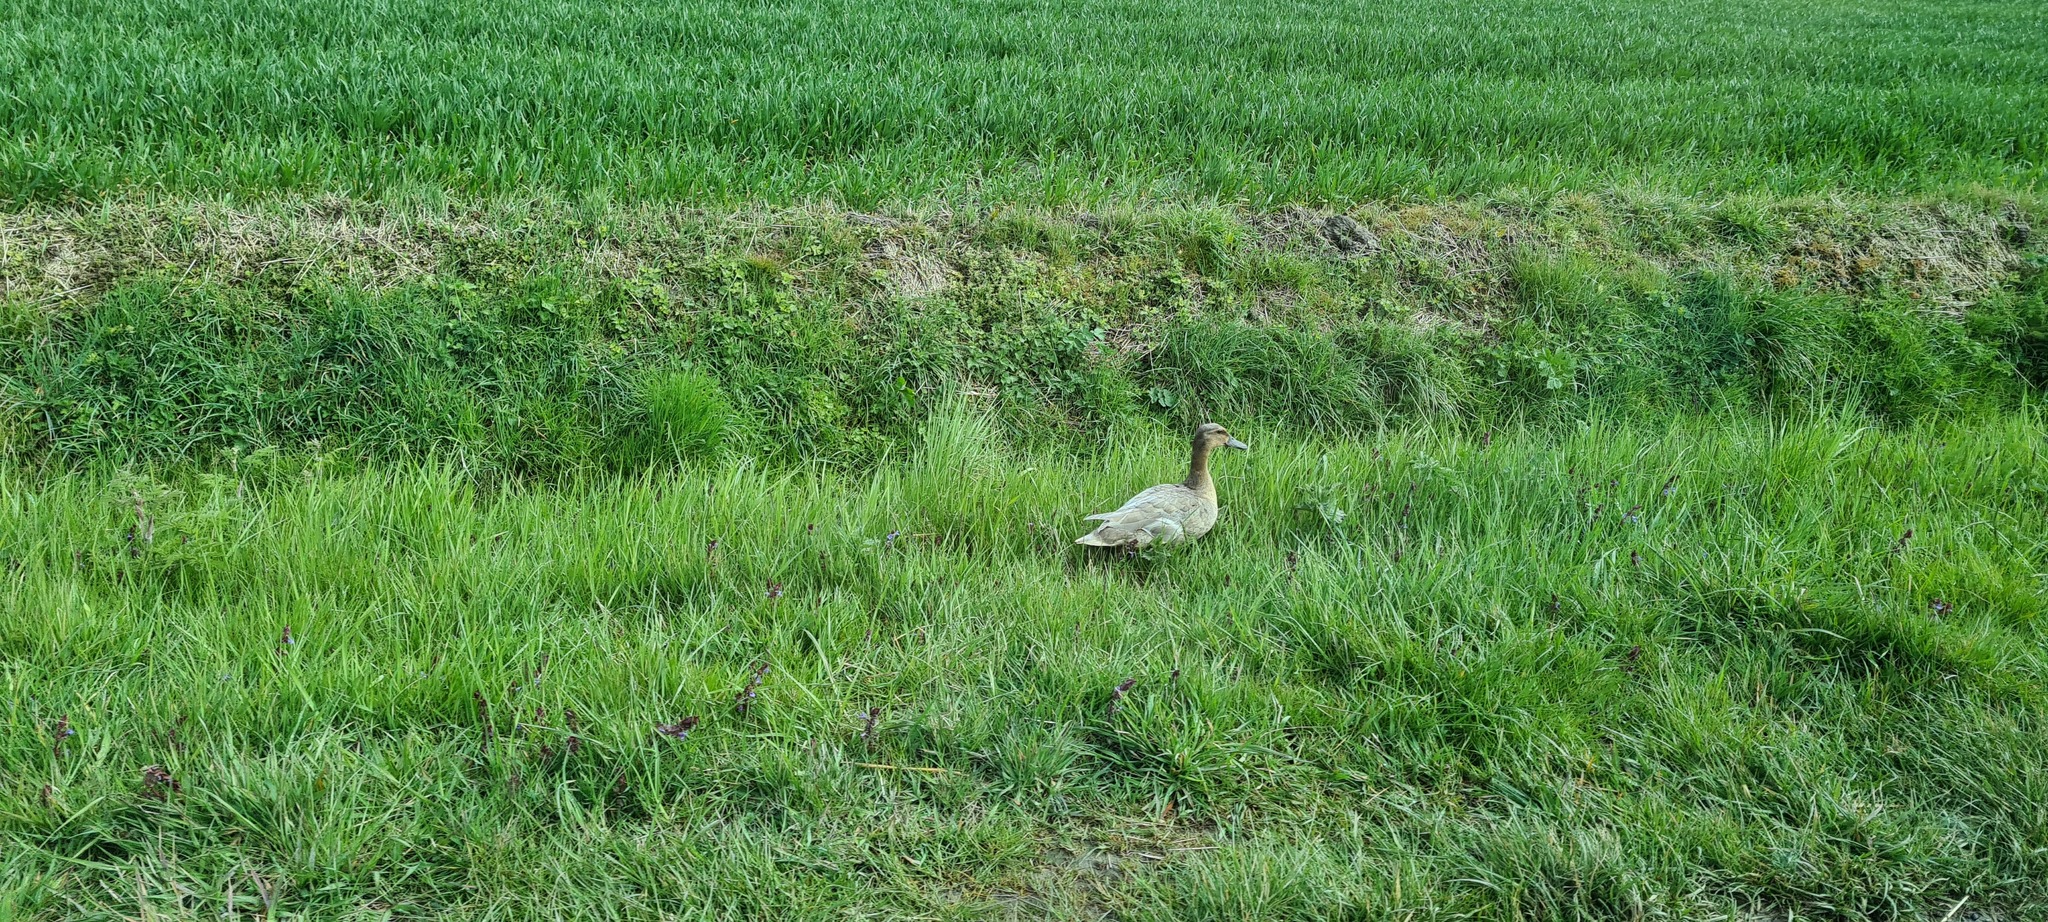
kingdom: Animalia
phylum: Chordata
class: Aves
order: Anseriformes
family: Anatidae
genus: Anas
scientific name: Anas platyrhynchos
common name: Mallard
